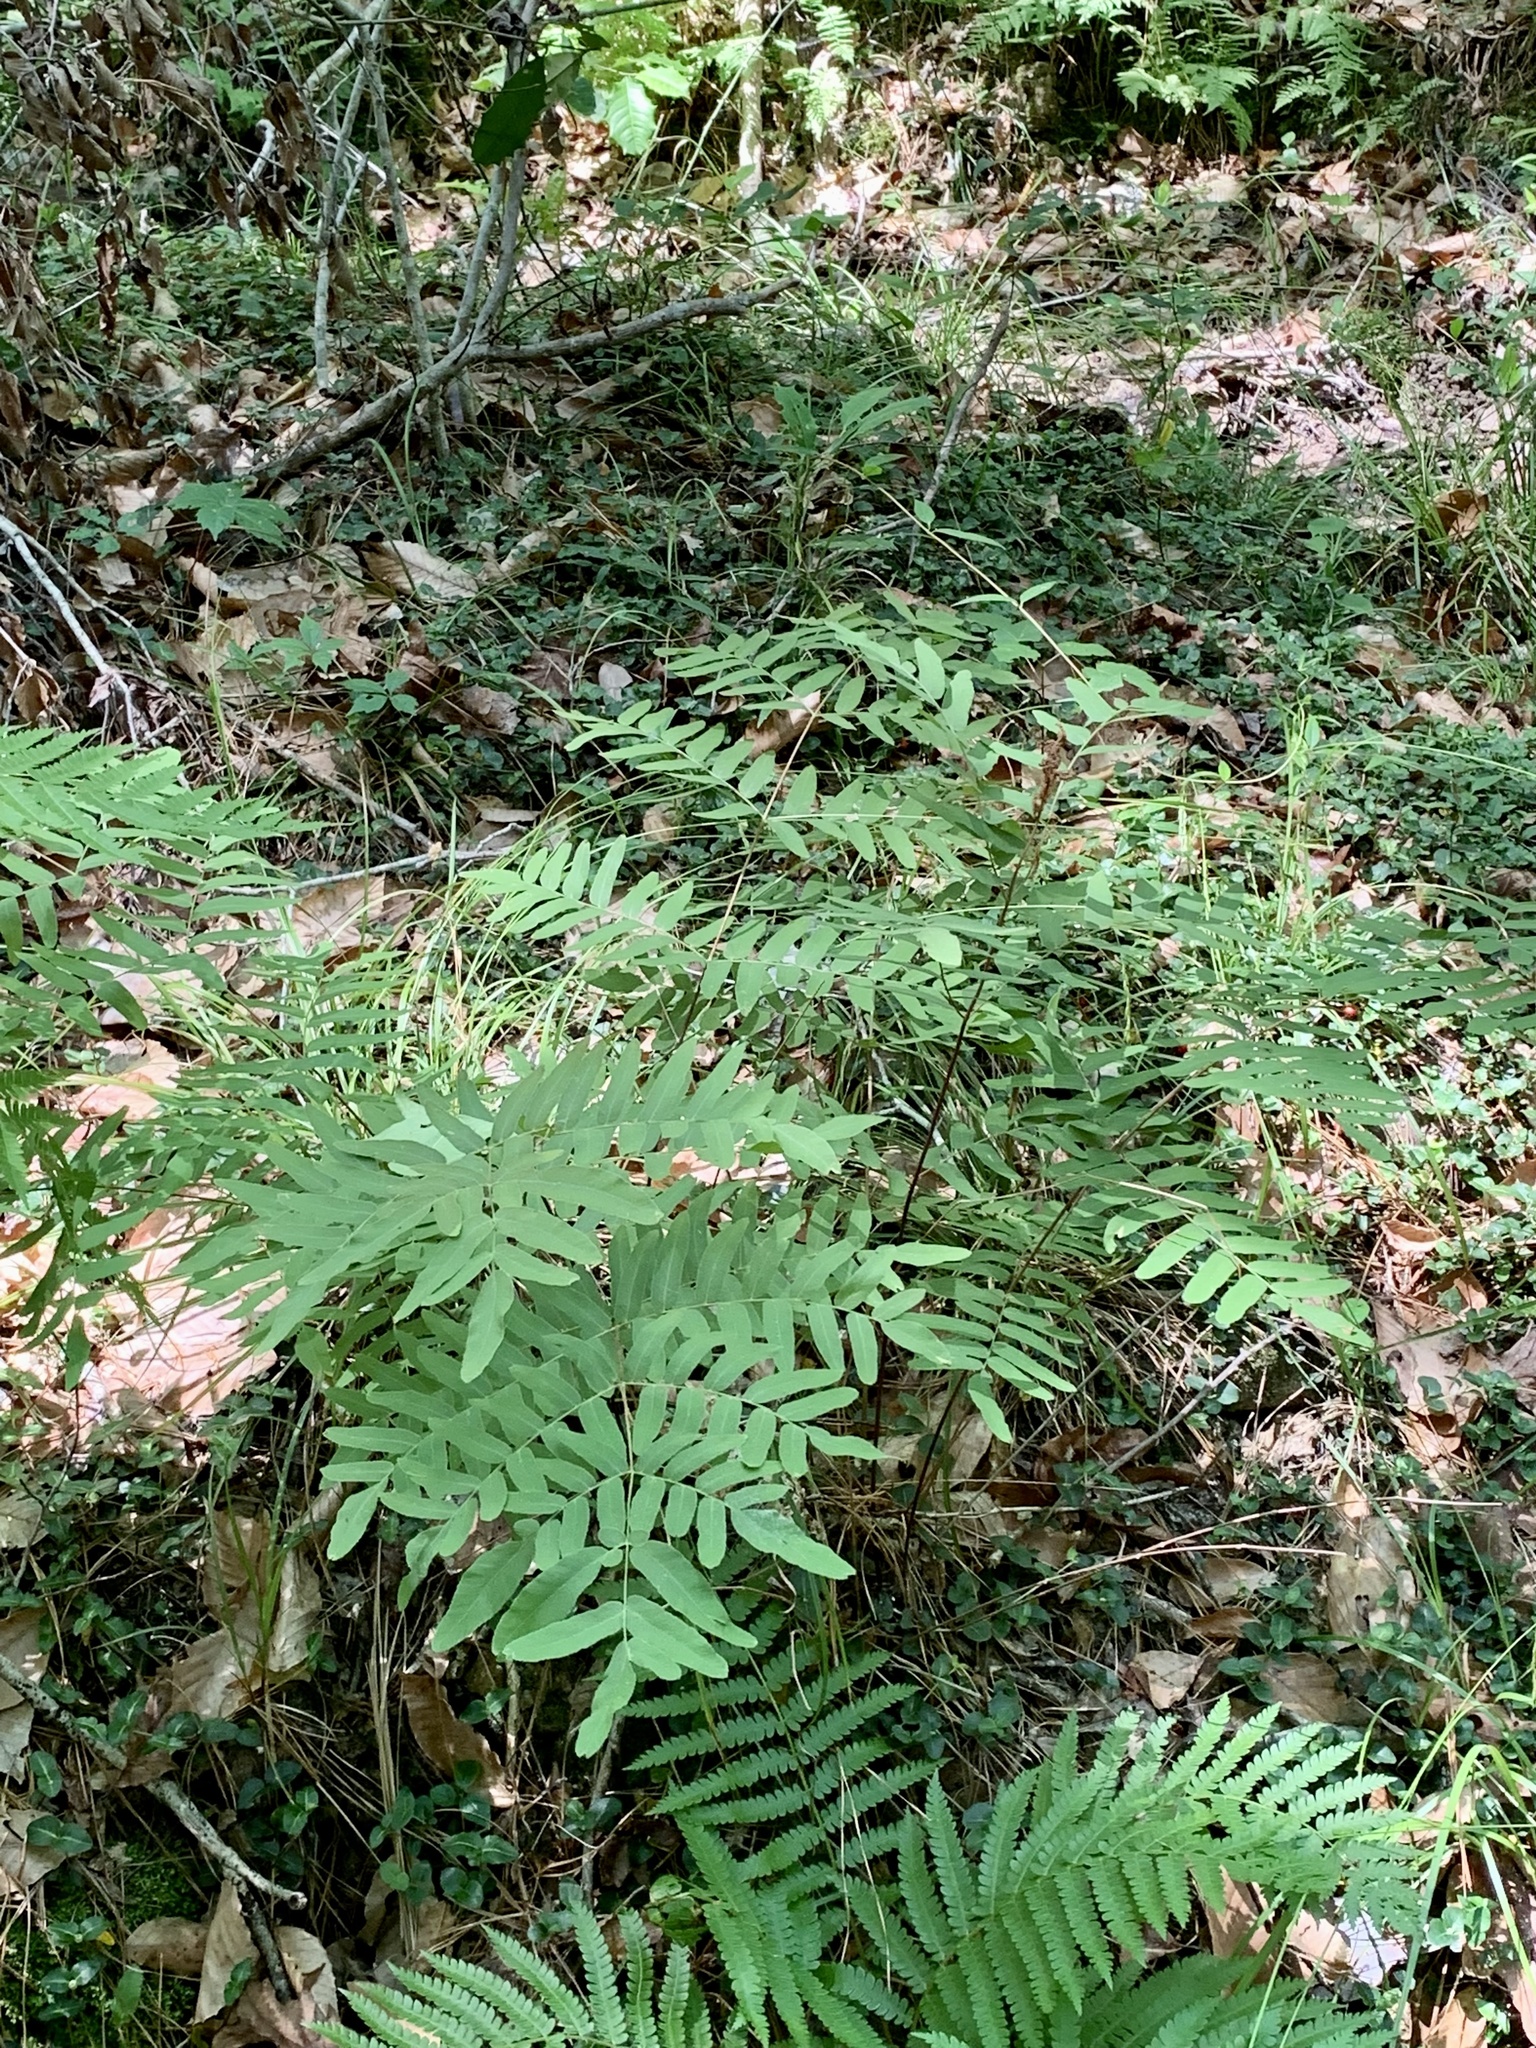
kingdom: Plantae
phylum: Tracheophyta
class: Polypodiopsida
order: Osmundales
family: Osmundaceae
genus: Osmunda
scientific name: Osmunda spectabilis
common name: American royal fern
